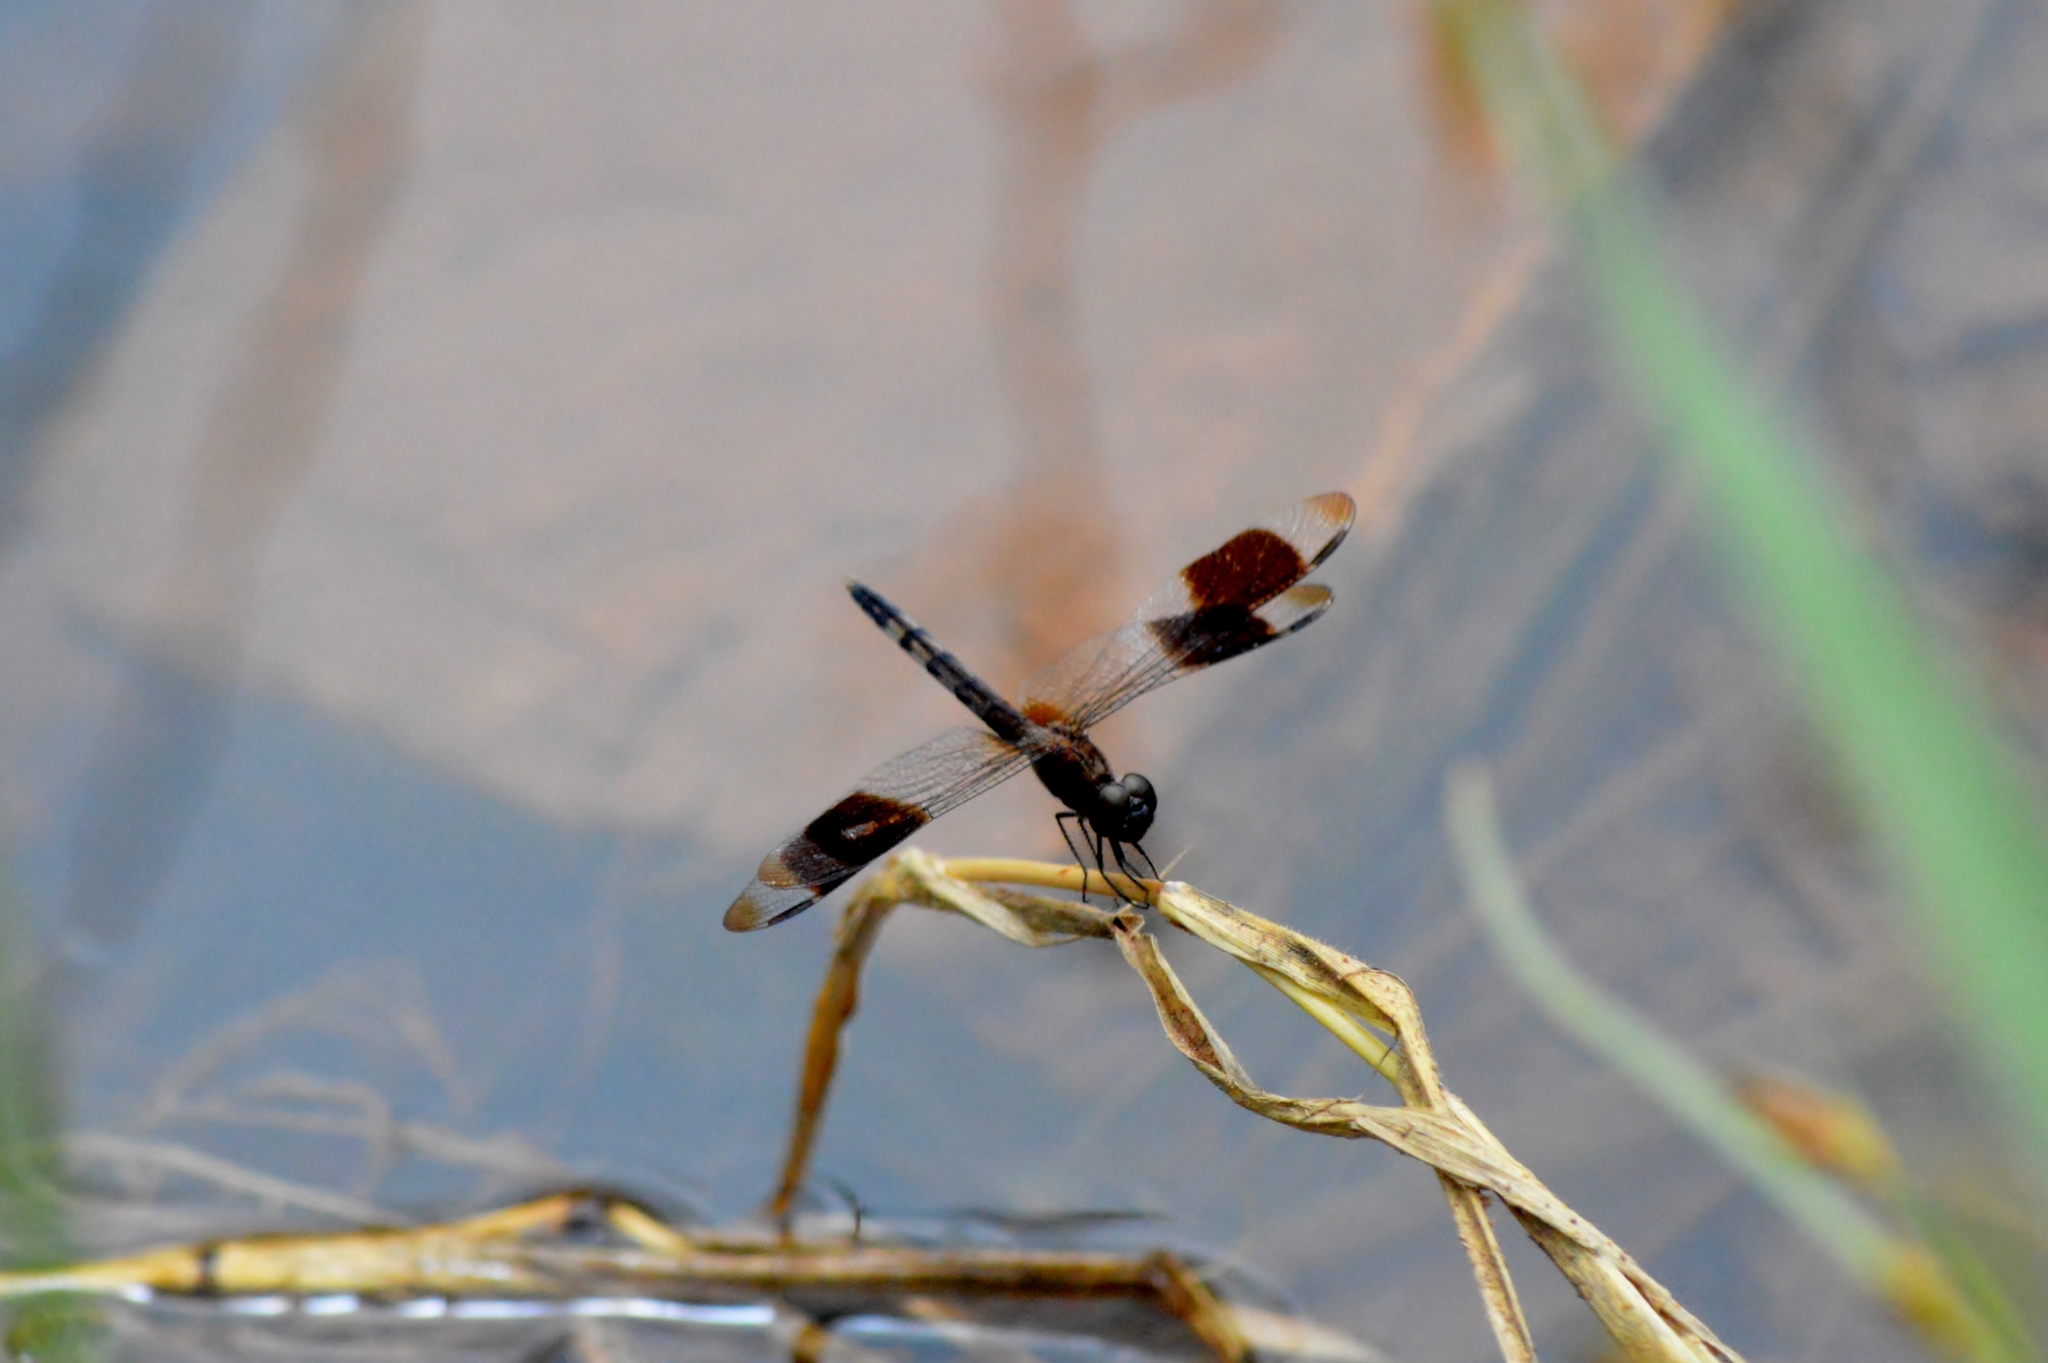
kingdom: Animalia
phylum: Arthropoda
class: Insecta
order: Odonata
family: Libellulidae
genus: Erythrodiplax
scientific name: Erythrodiplax umbrata
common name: Band-winged dragonlet
